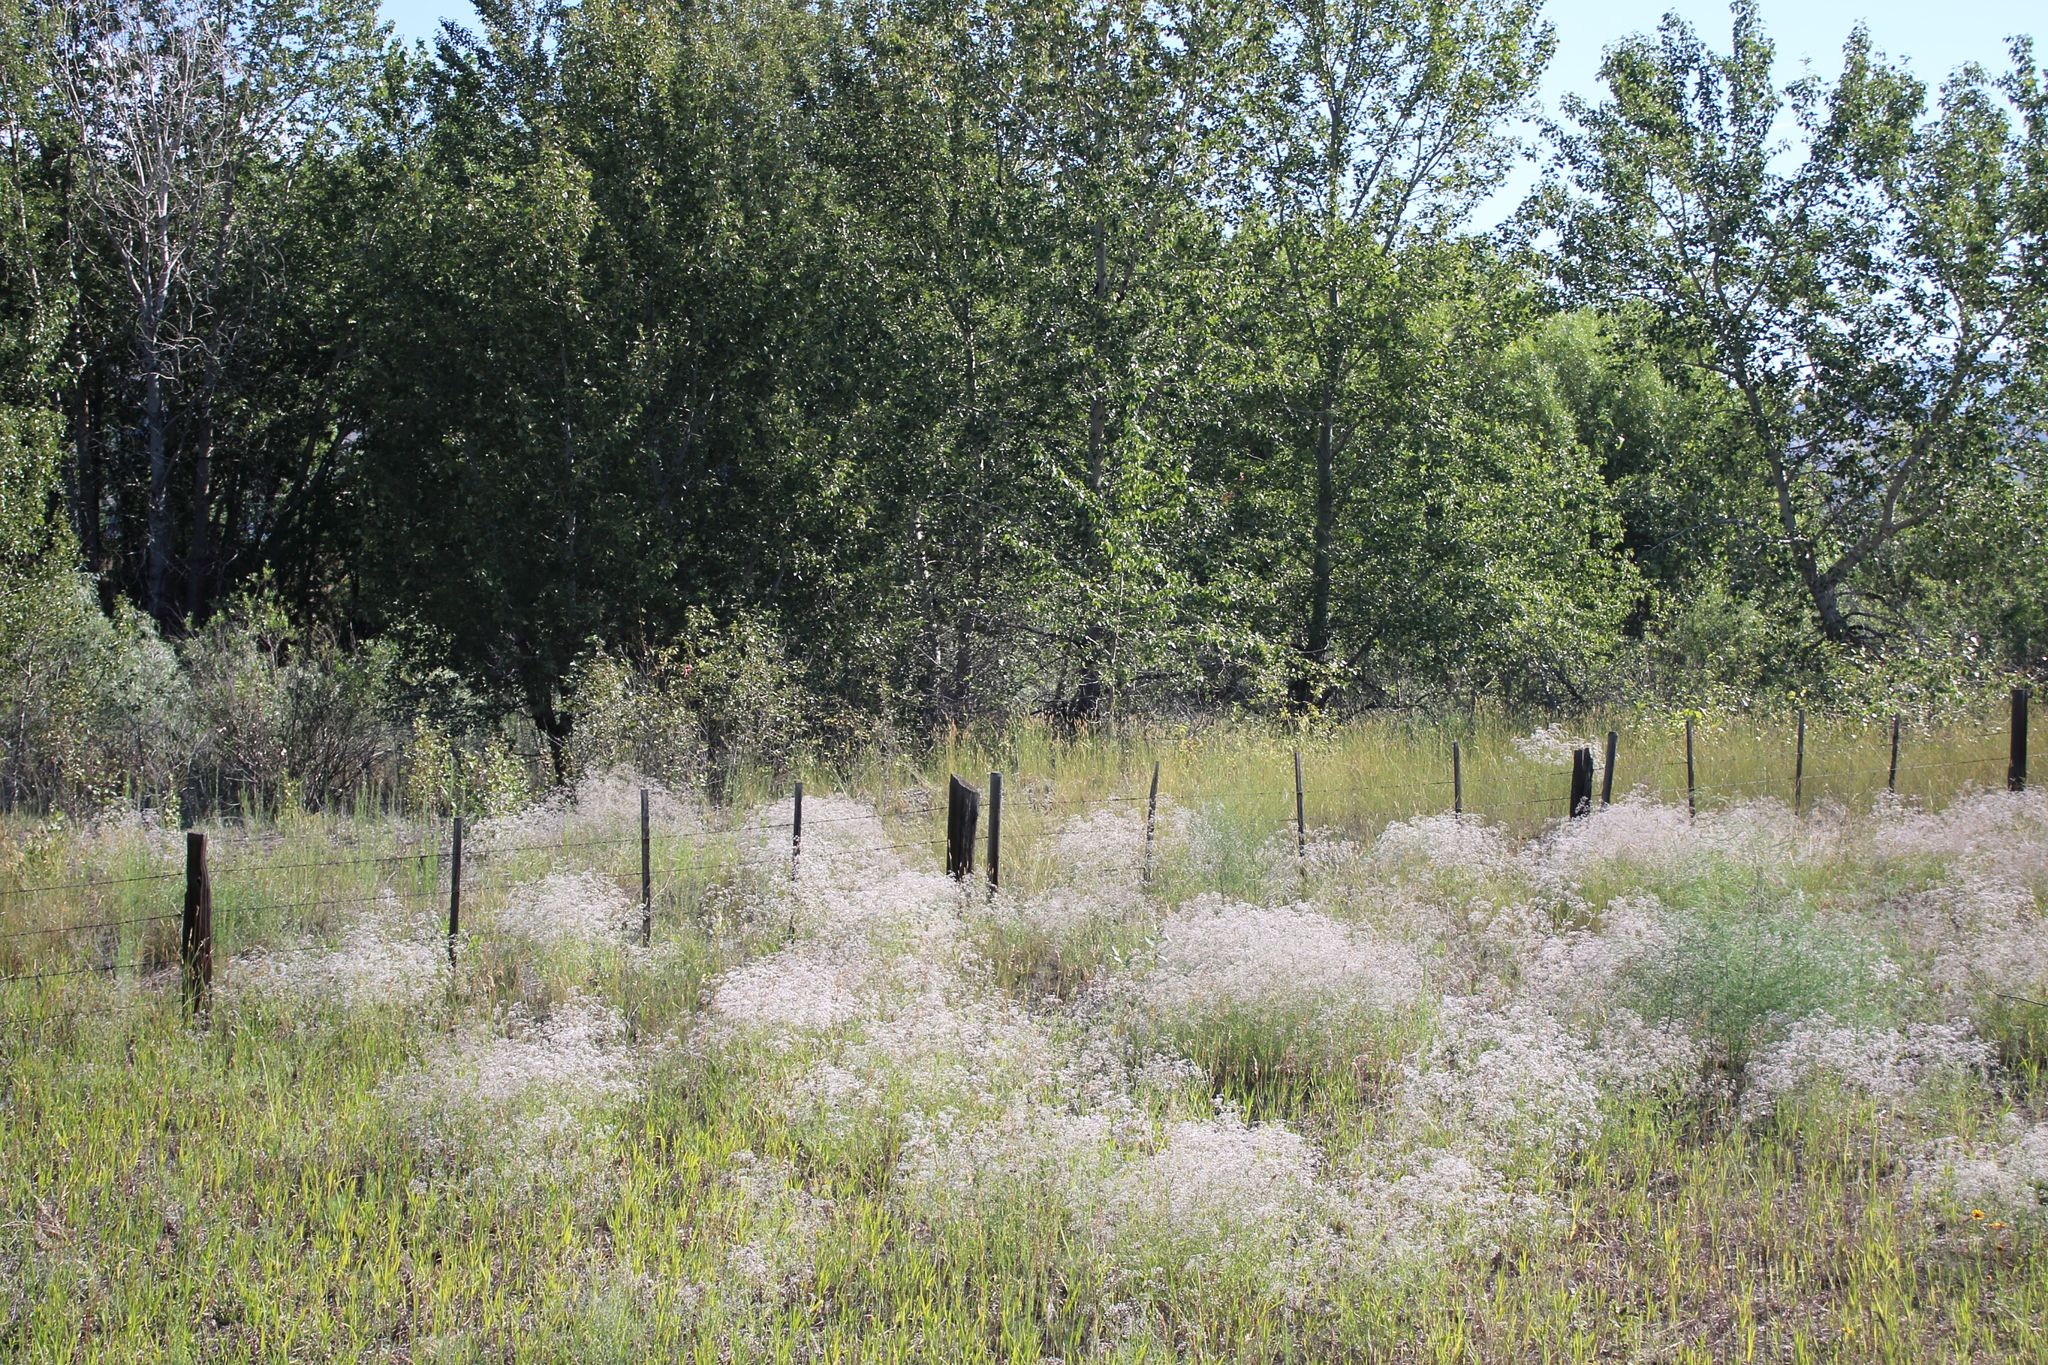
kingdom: Plantae
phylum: Tracheophyta
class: Magnoliopsida
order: Caryophyllales
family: Caryophyllaceae
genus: Gypsophila
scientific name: Gypsophila paniculata
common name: Baby's-breath
